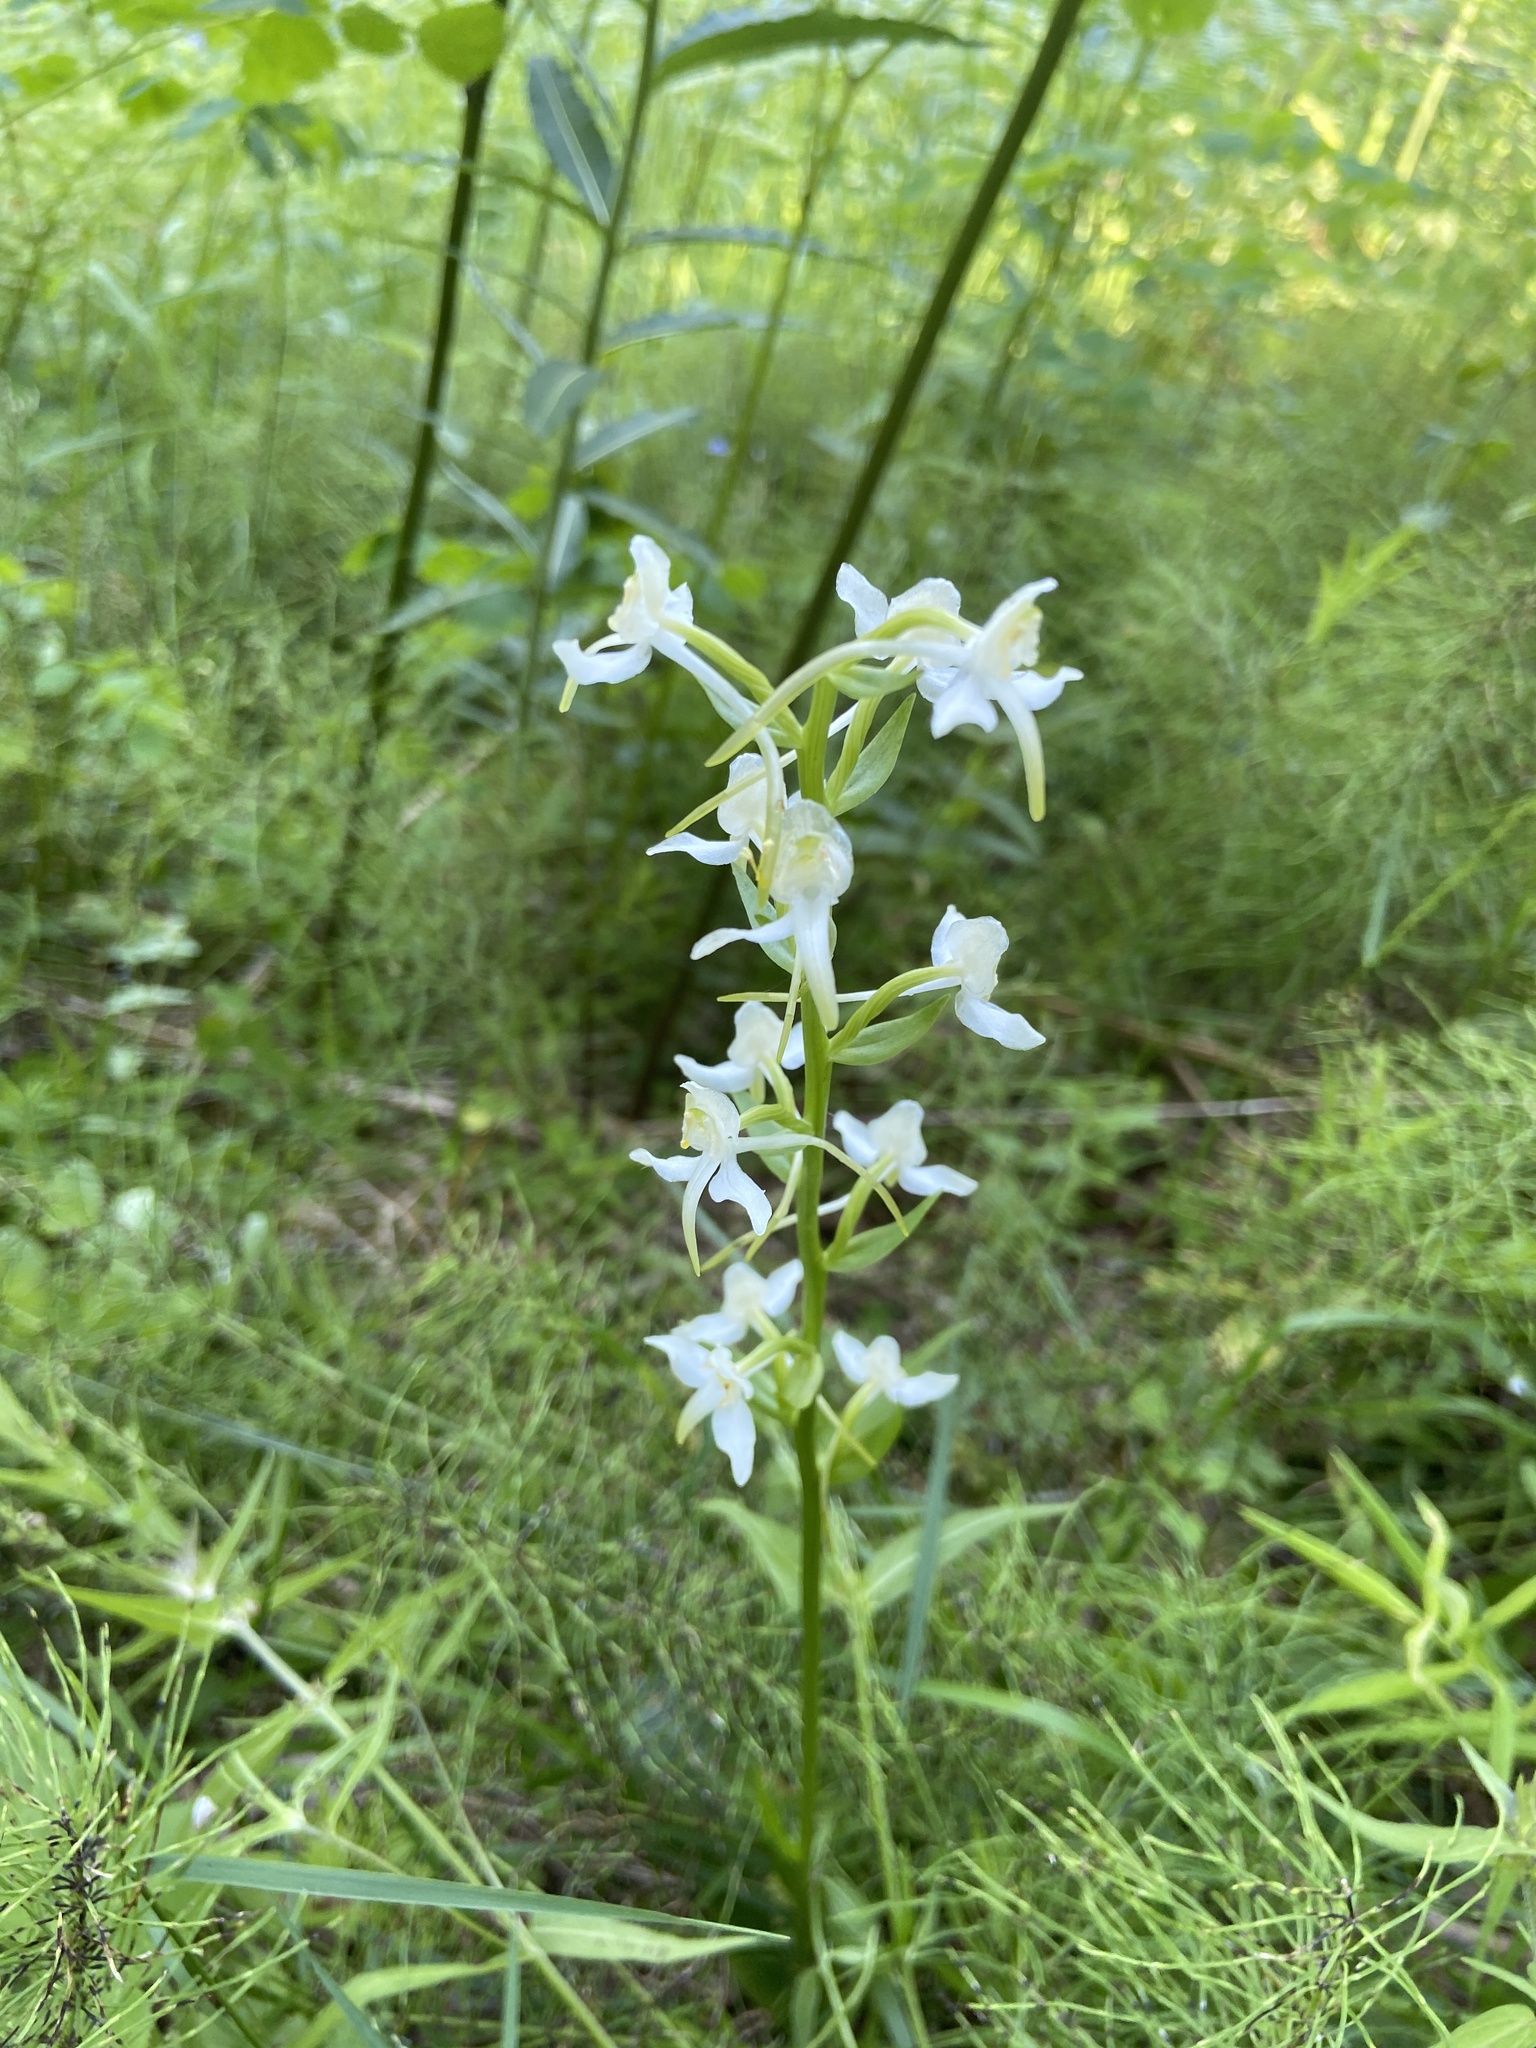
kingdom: Plantae
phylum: Tracheophyta
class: Liliopsida
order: Asparagales
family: Orchidaceae
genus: Platanthera
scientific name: Platanthera chlorantha
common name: Greater butterfly-orchid
